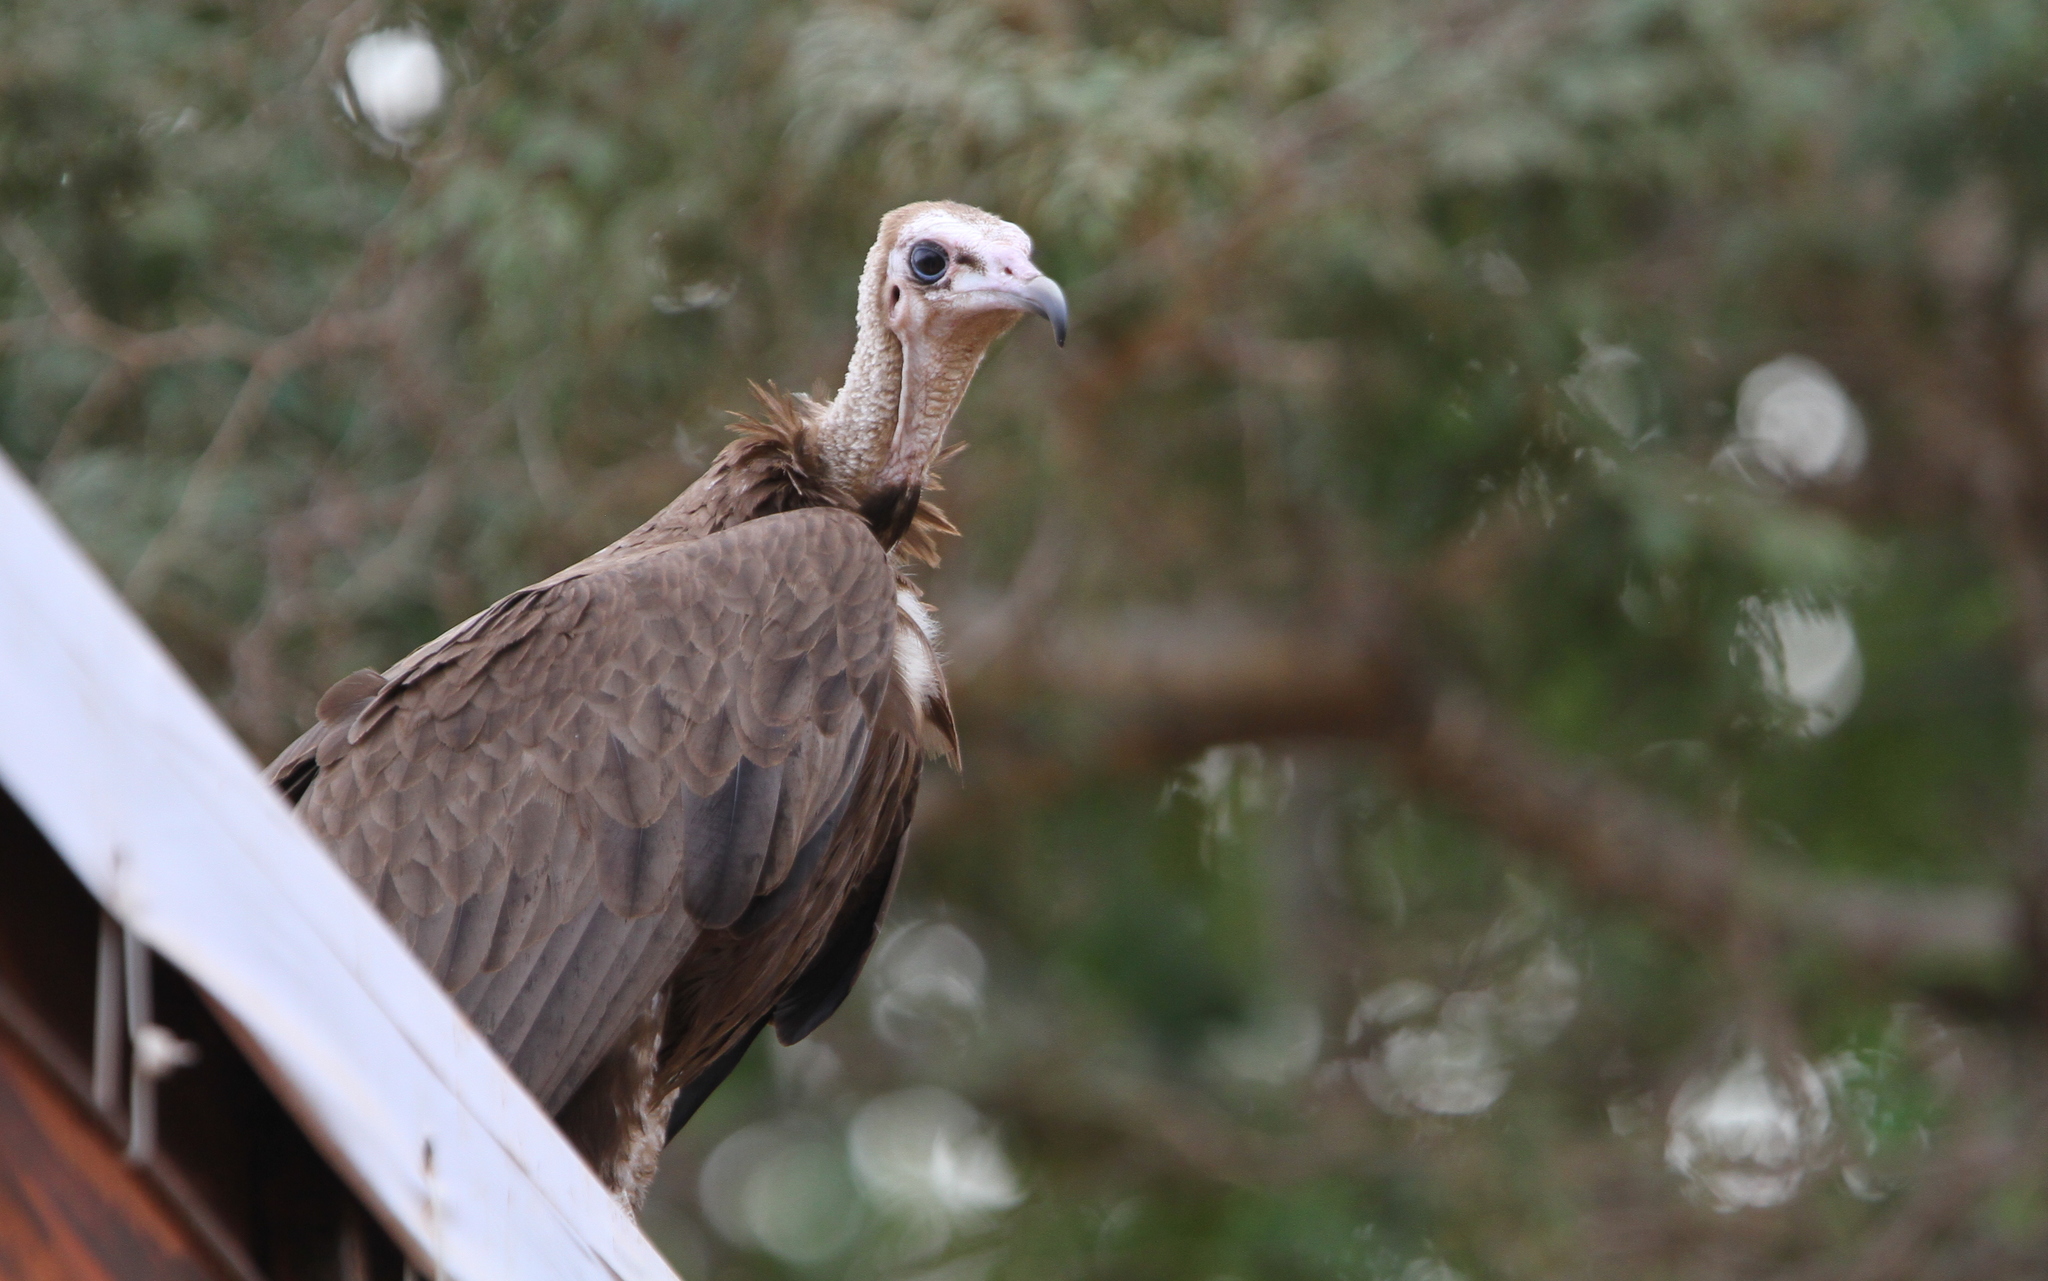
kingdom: Animalia
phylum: Chordata
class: Aves
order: Accipitriformes
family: Accipitridae
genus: Necrosyrtes
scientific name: Necrosyrtes monachus
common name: Hooded vulture
